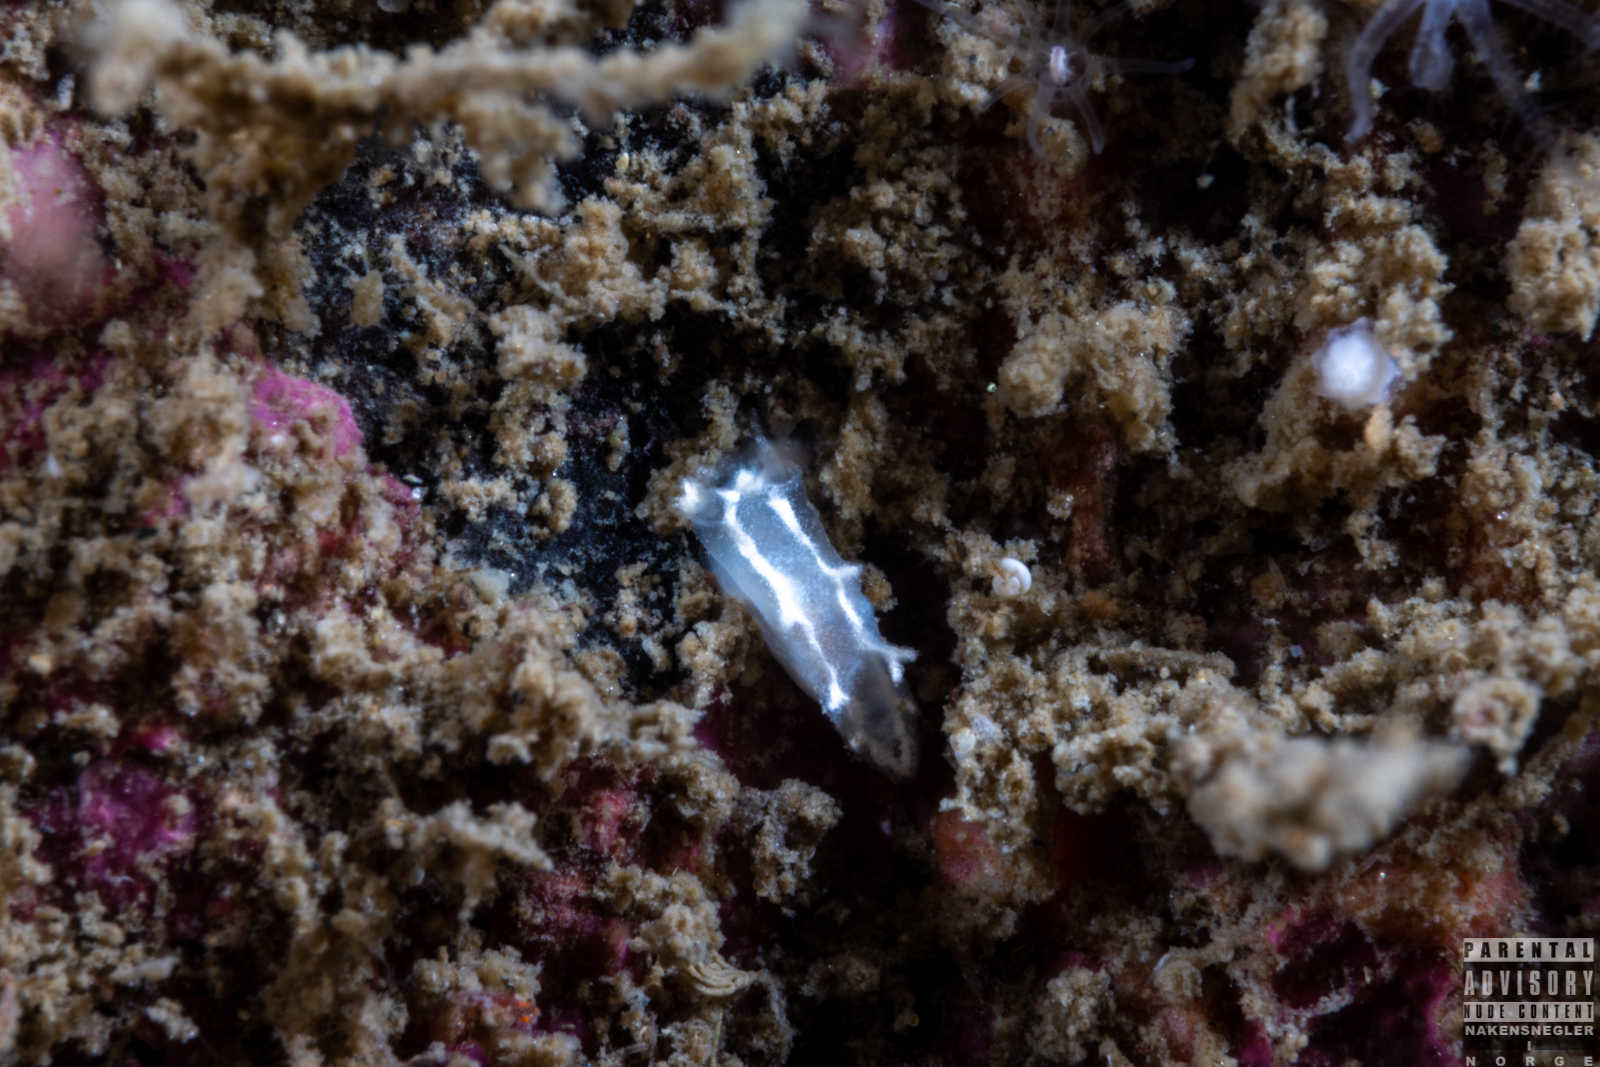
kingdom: Animalia
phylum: Mollusca
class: Gastropoda
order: Nudibranchia
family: Tritoniidae
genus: Duvaucelia
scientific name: Duvaucelia lineata
